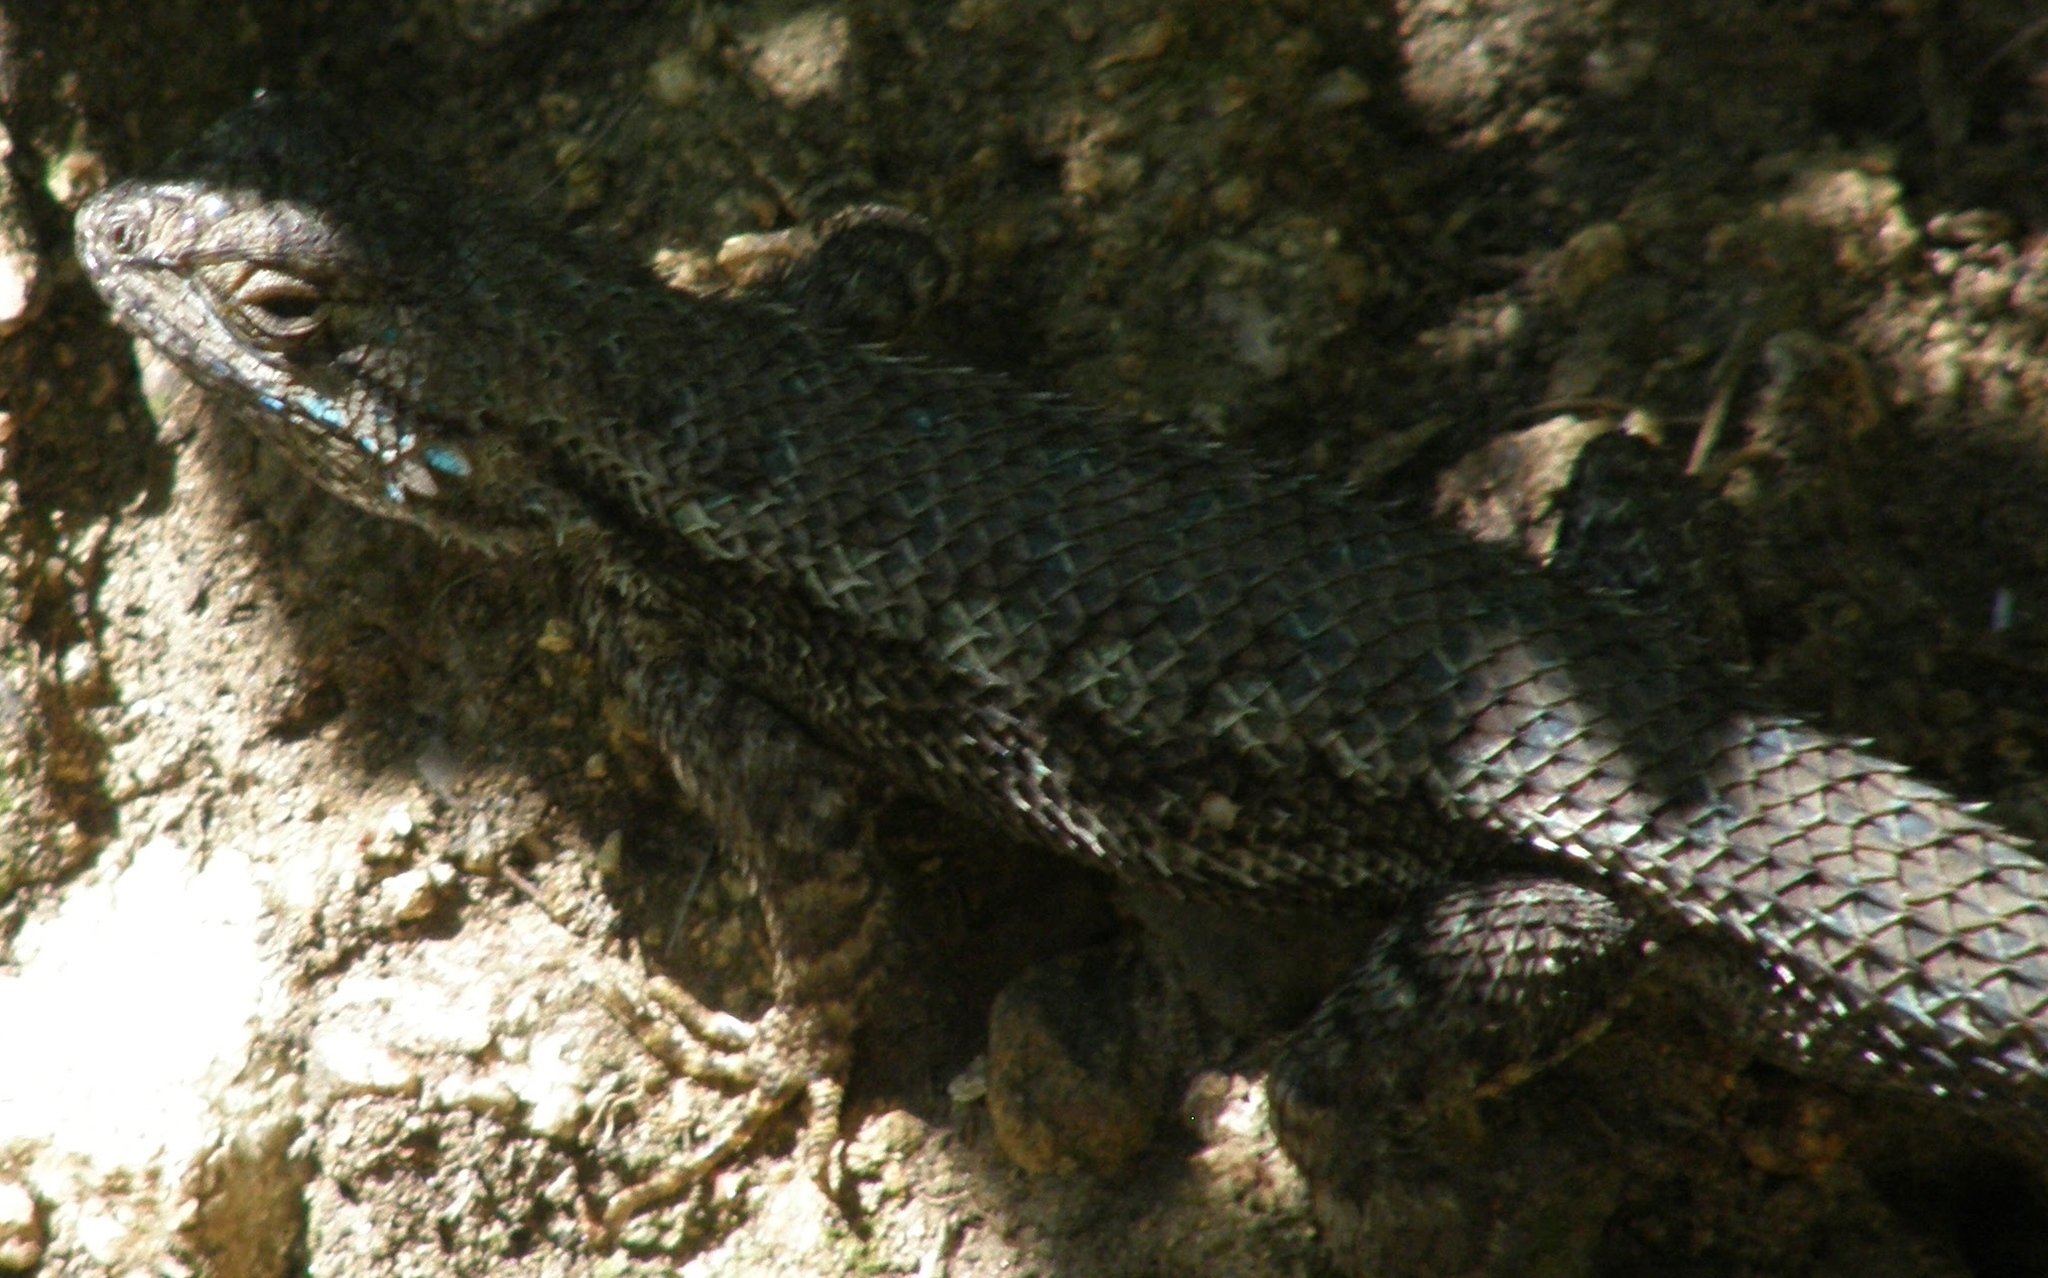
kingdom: Animalia
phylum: Chordata
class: Squamata
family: Phrynosomatidae
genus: Sceloporus
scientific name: Sceloporus occidentalis
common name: Western fence lizard
